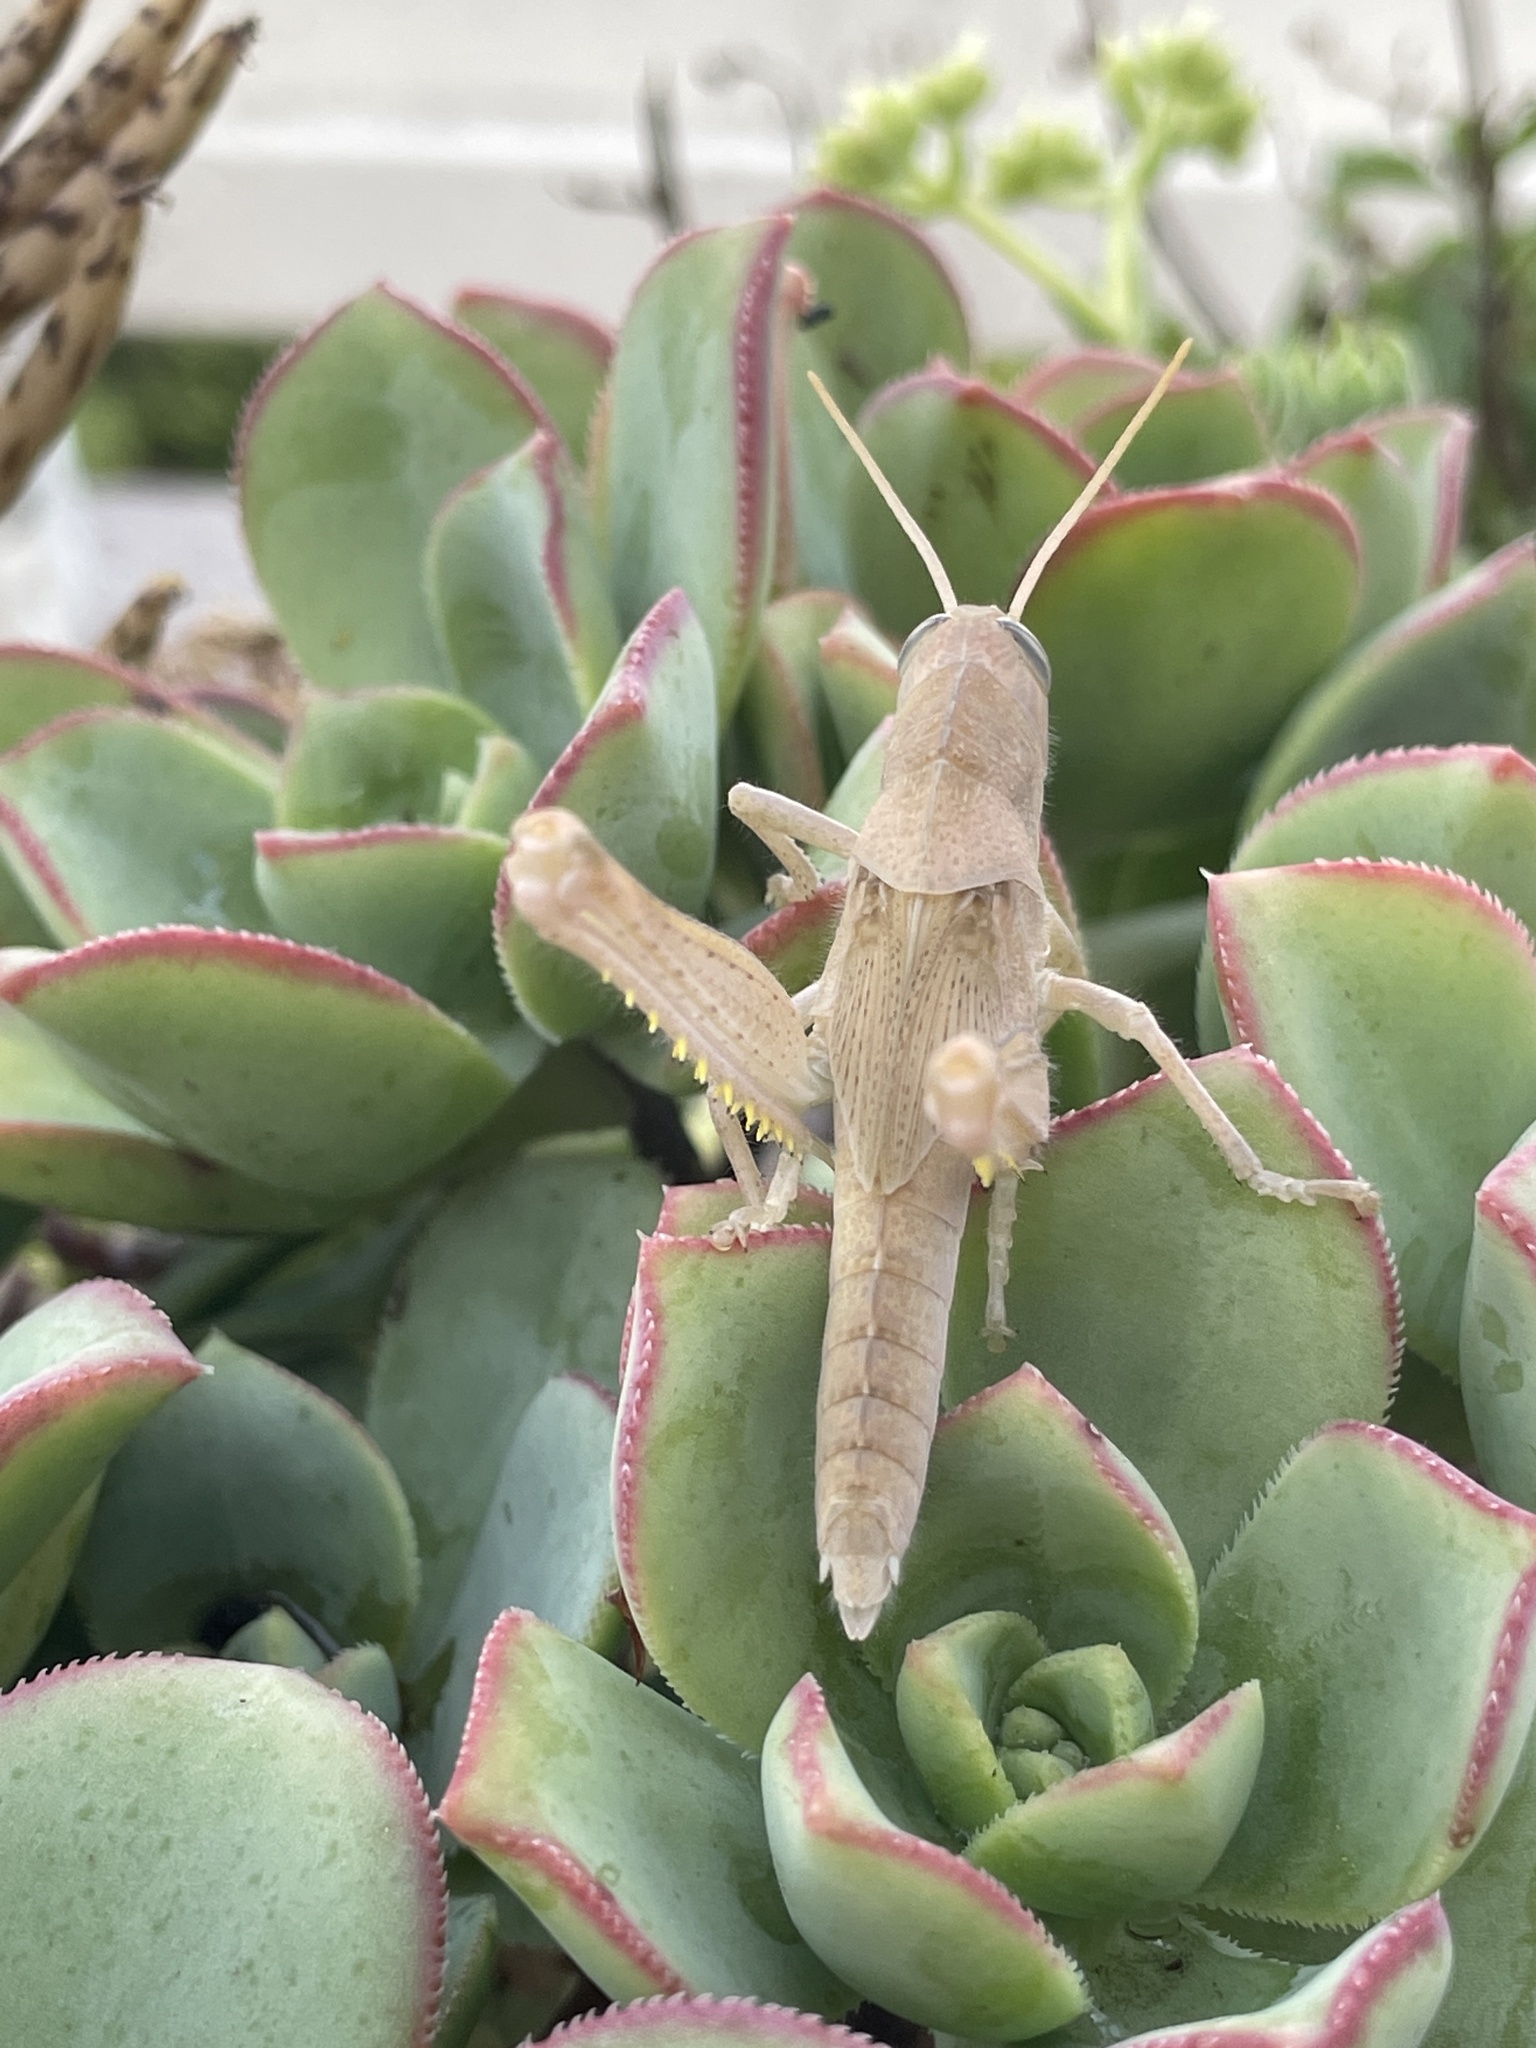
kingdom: Animalia
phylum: Arthropoda
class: Insecta
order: Orthoptera
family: Acrididae
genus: Schistocerca
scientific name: Schistocerca nitens
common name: Vagrant grasshopper
